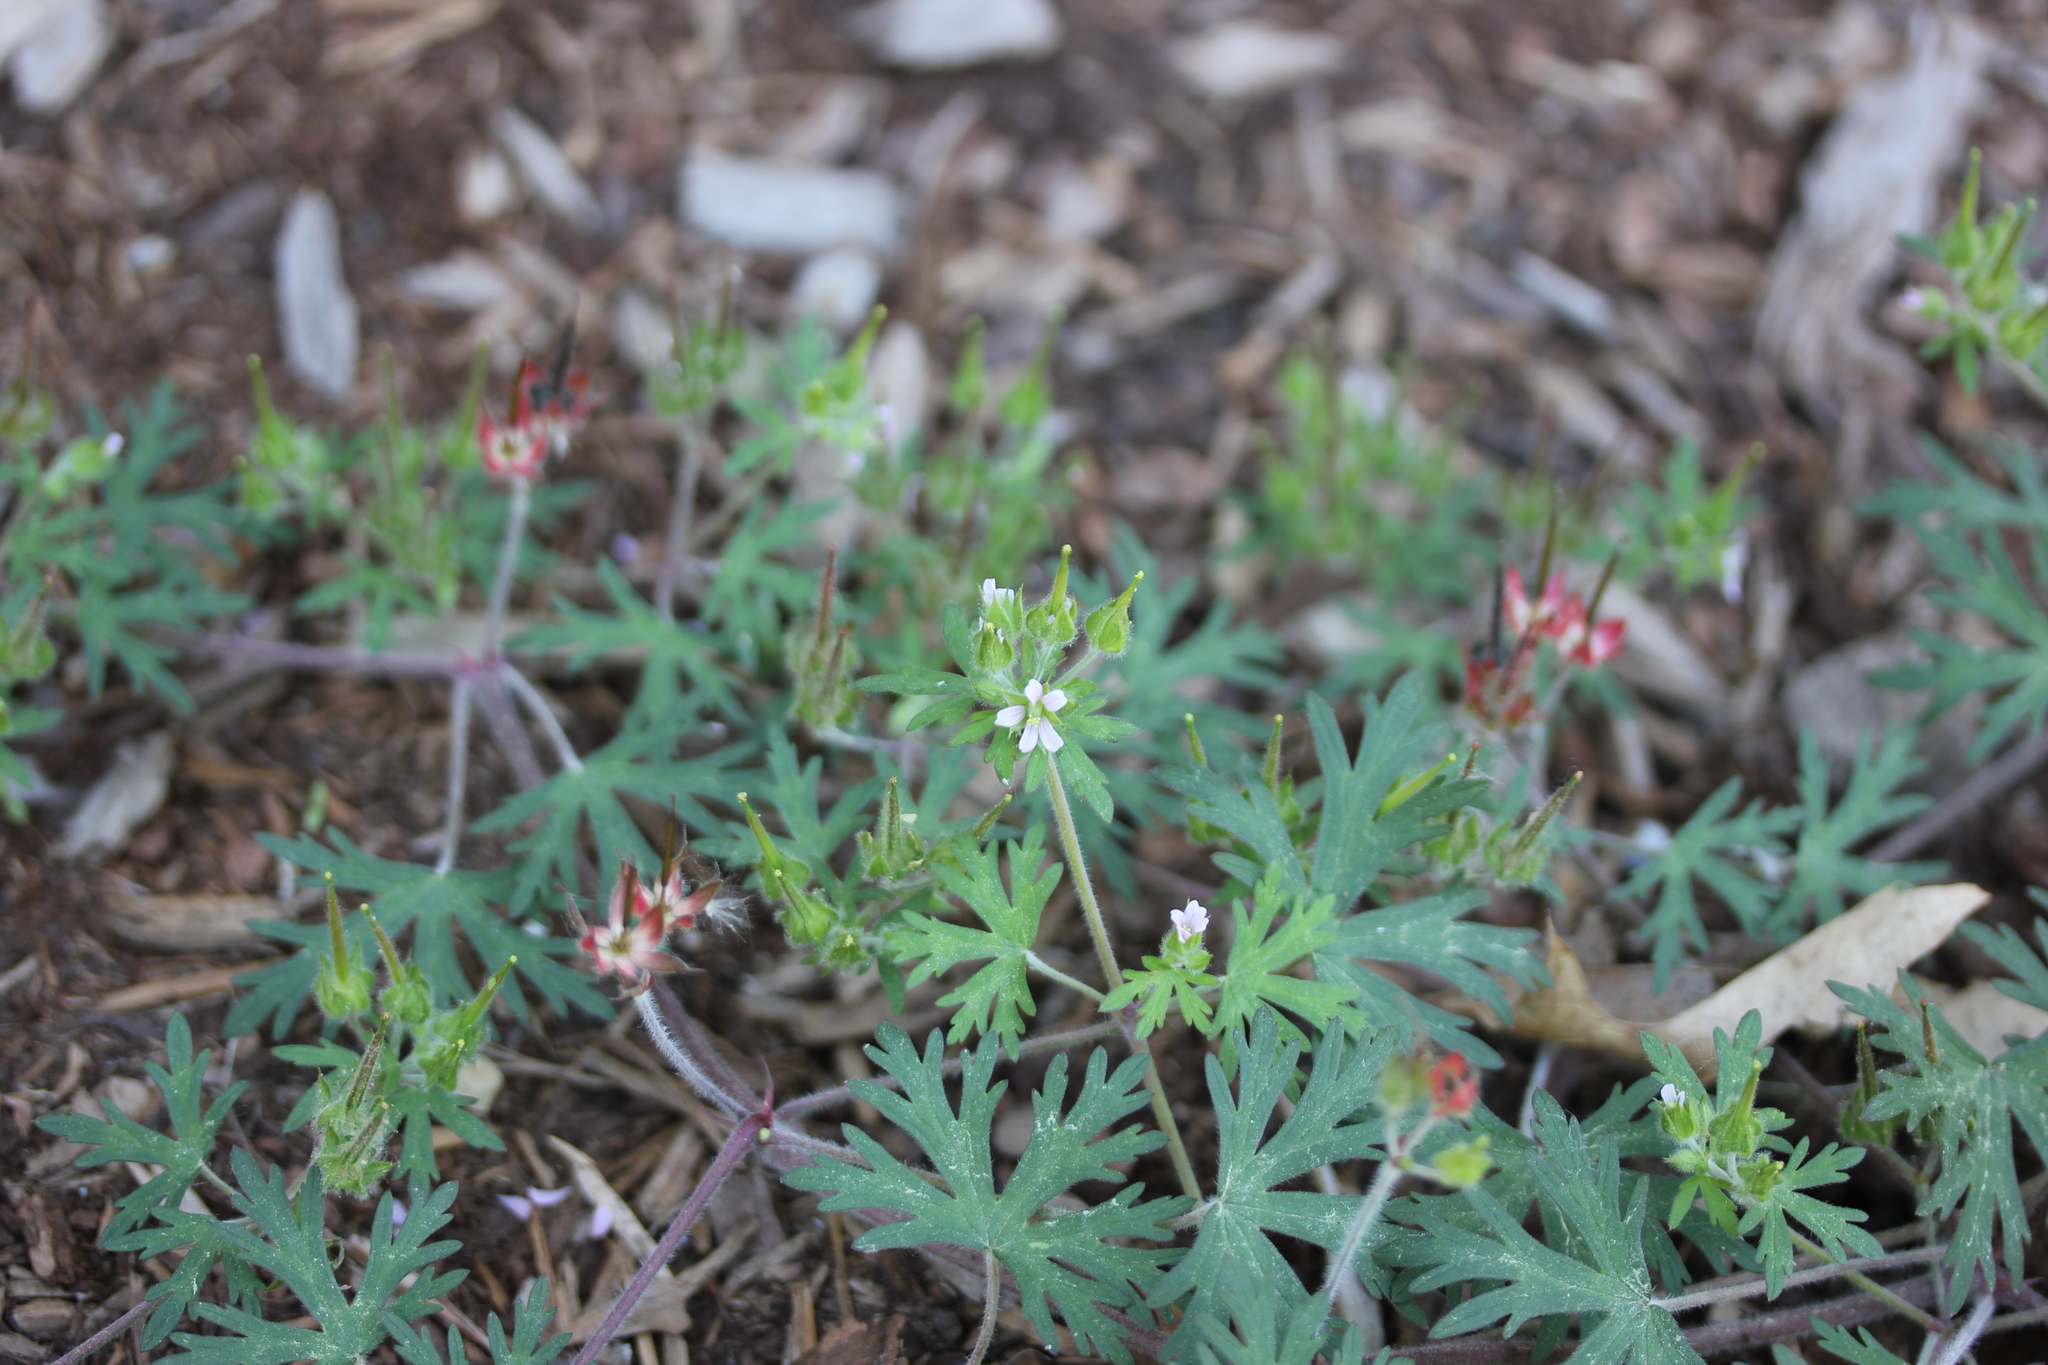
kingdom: Plantae
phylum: Tracheophyta
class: Magnoliopsida
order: Geraniales
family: Geraniaceae
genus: Geranium
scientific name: Geranium robertianum
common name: Herb-robert
